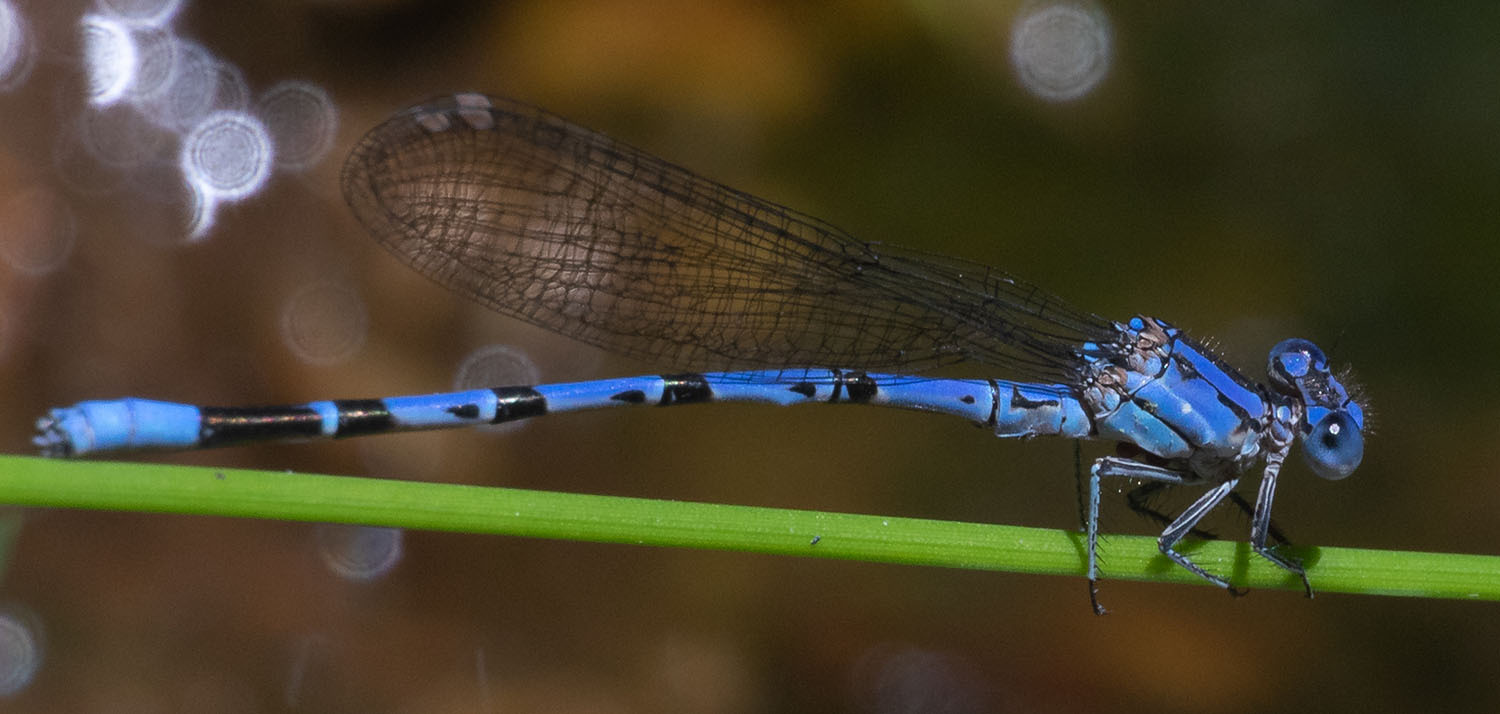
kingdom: Animalia
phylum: Arthropoda
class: Insecta
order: Odonata
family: Coenagrionidae
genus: Argia
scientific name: Argia vivida
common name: Vivid dancer
